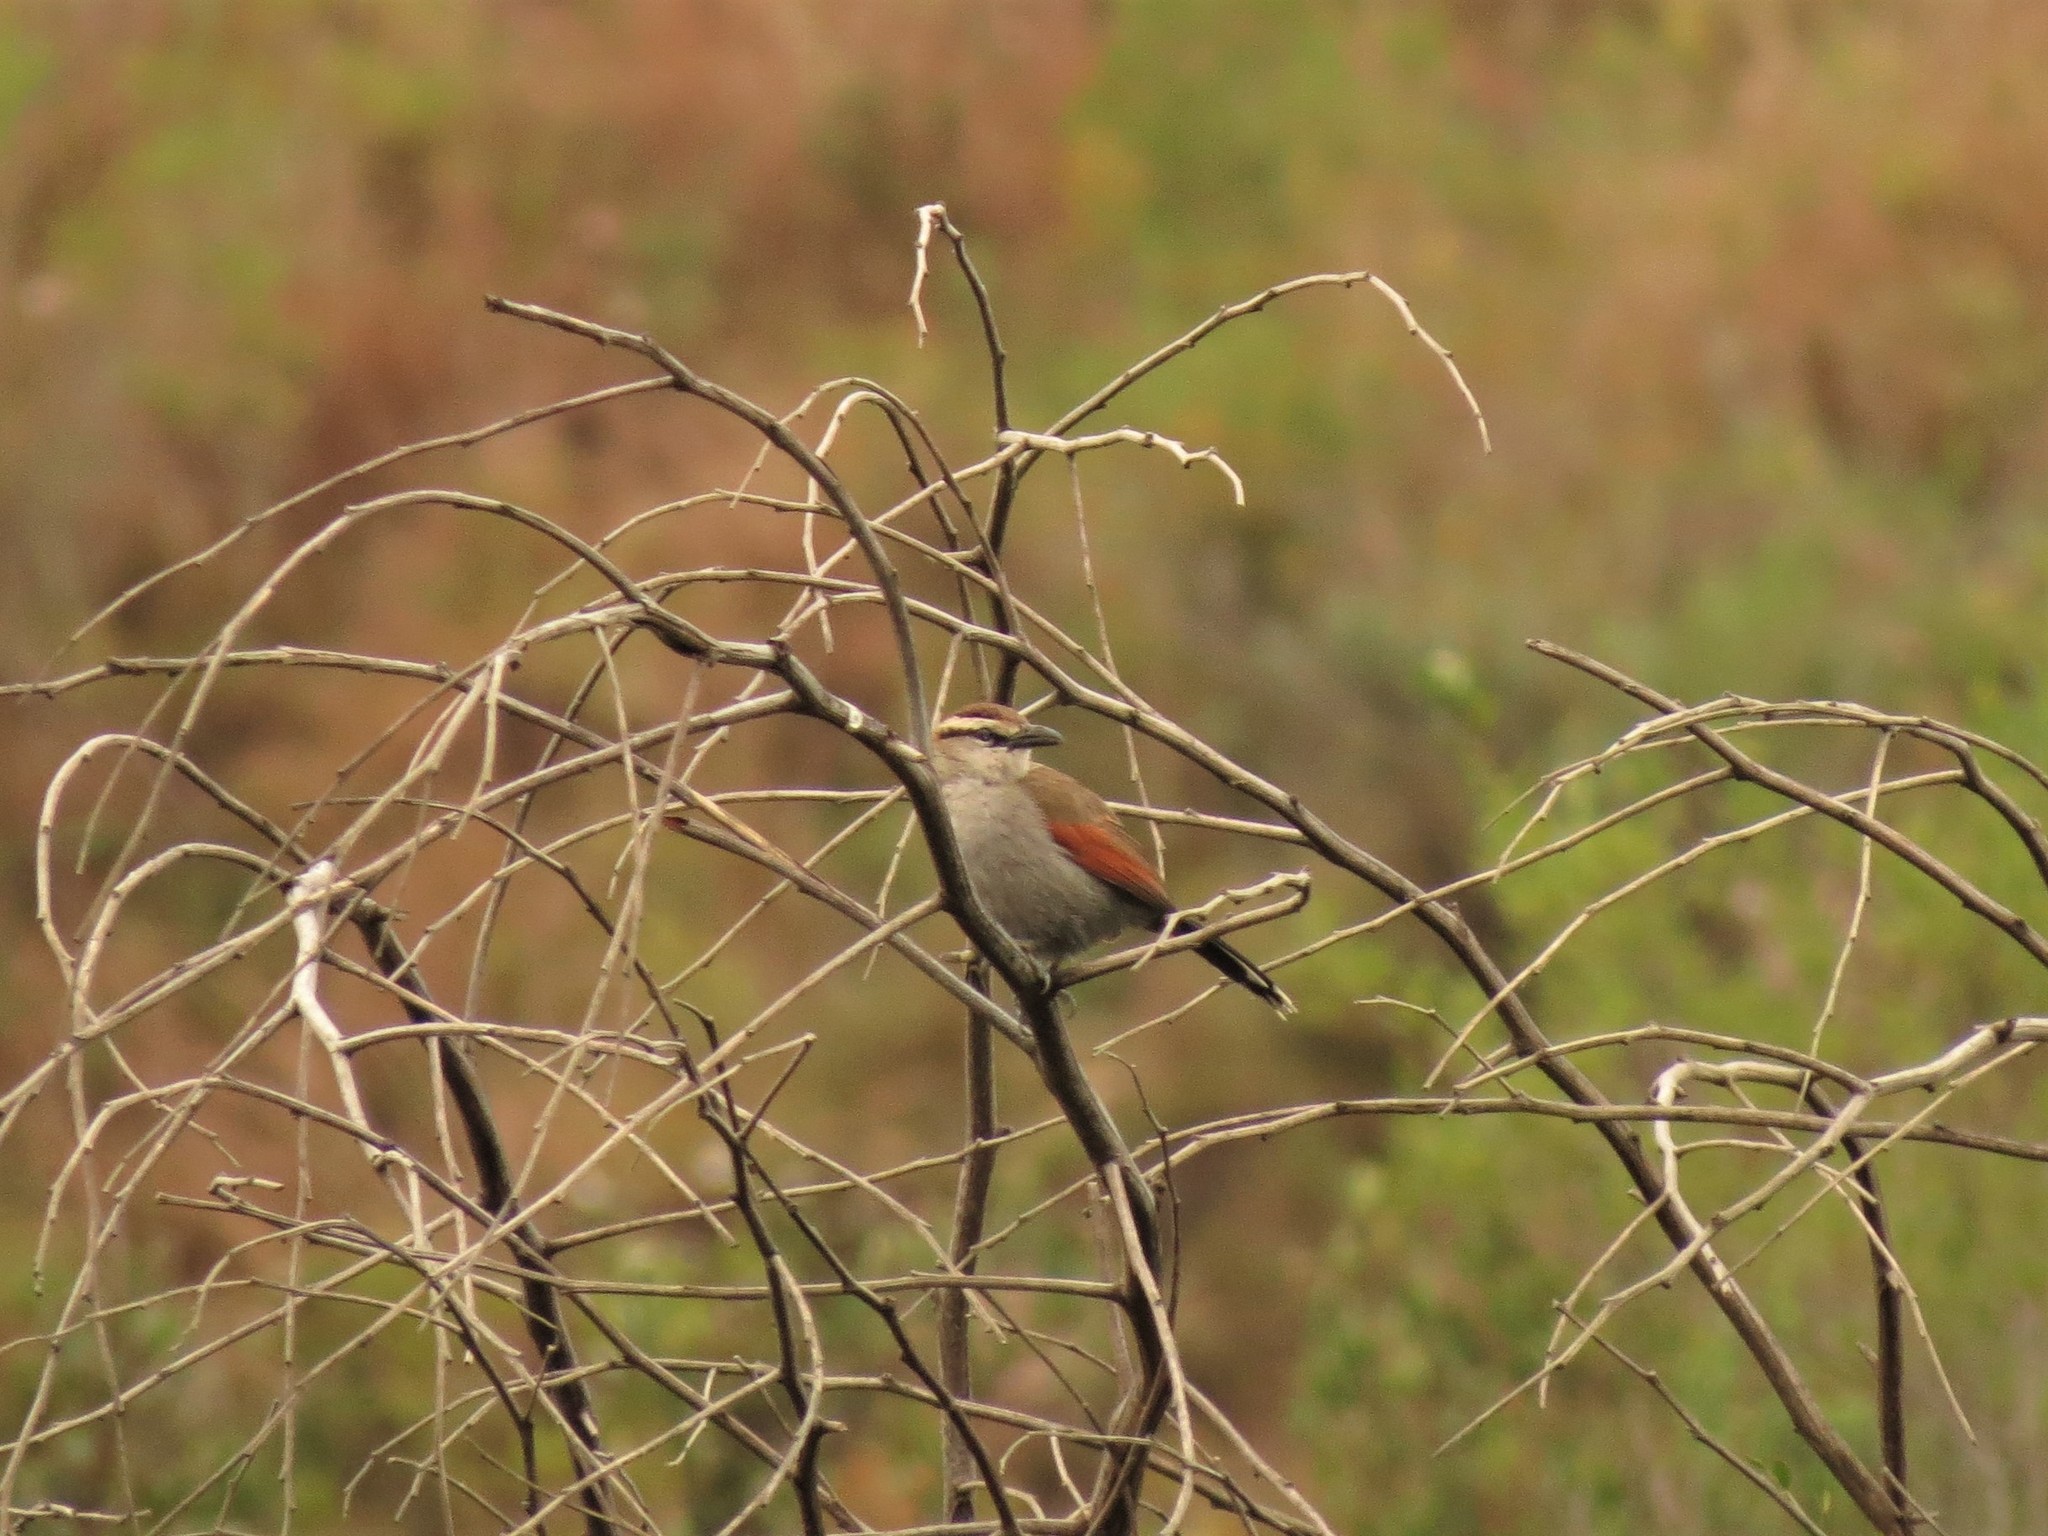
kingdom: Animalia
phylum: Chordata
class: Aves
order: Passeriformes
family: Malaconotidae
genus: Tchagra
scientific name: Tchagra tchagra
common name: Southern tchagra
